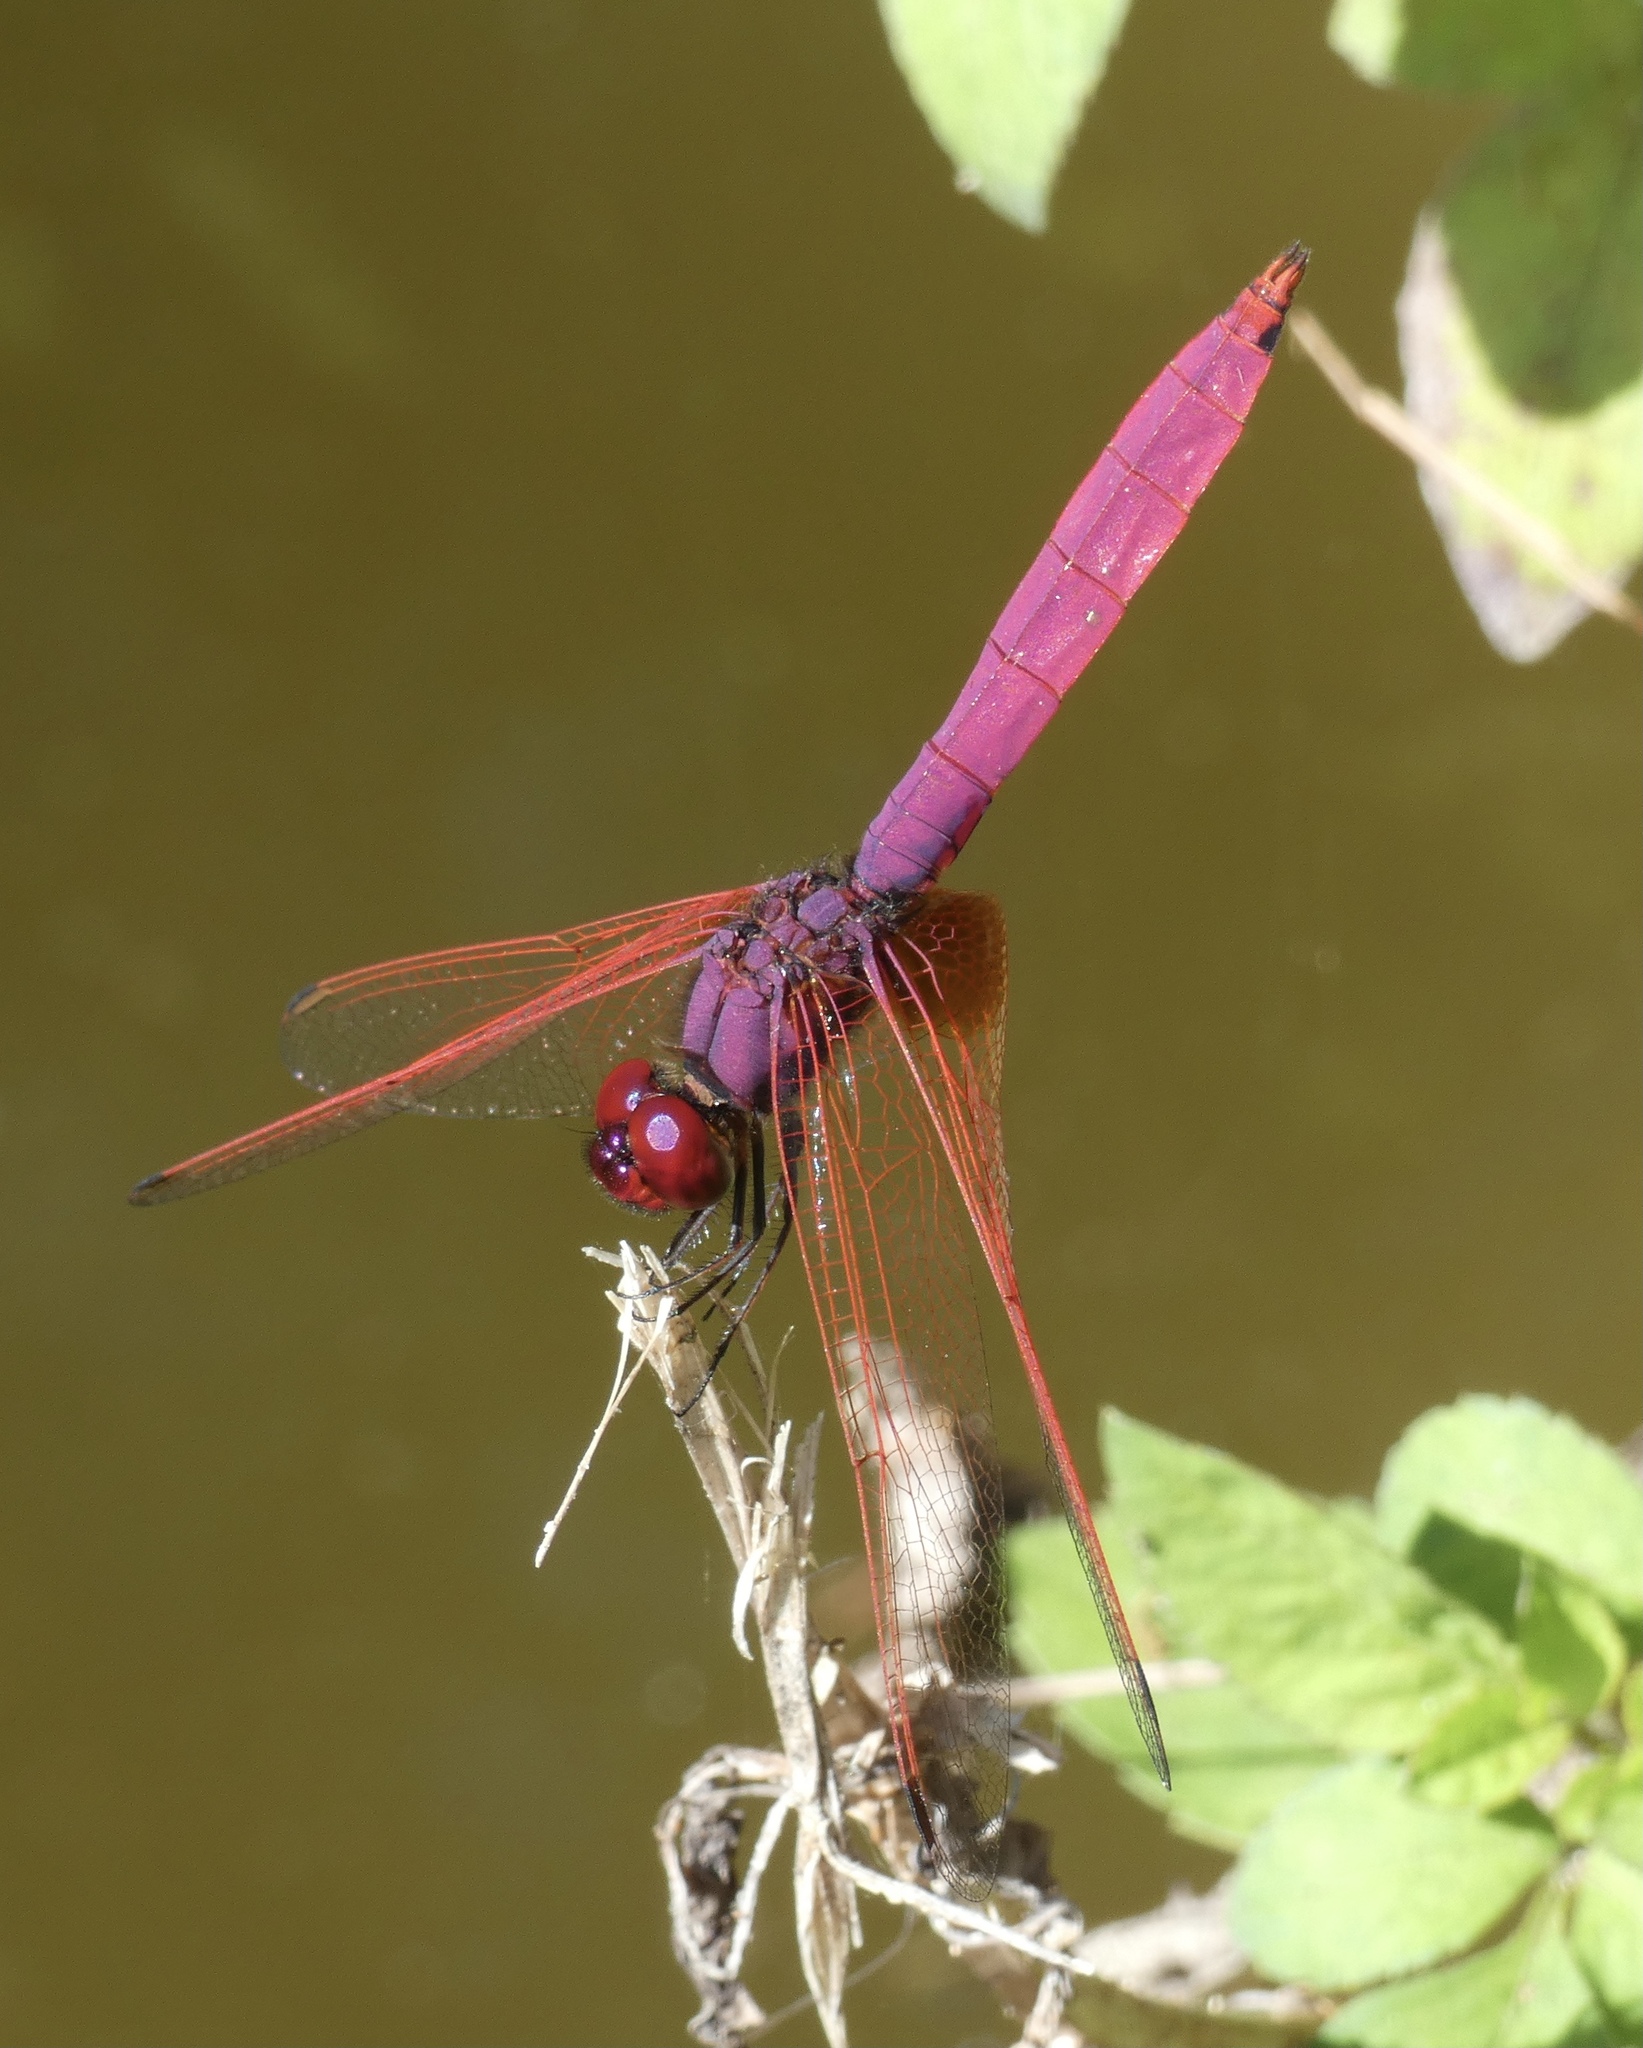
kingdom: Animalia
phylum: Arthropoda
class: Insecta
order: Odonata
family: Libellulidae
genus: Trithemis
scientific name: Trithemis aurora
